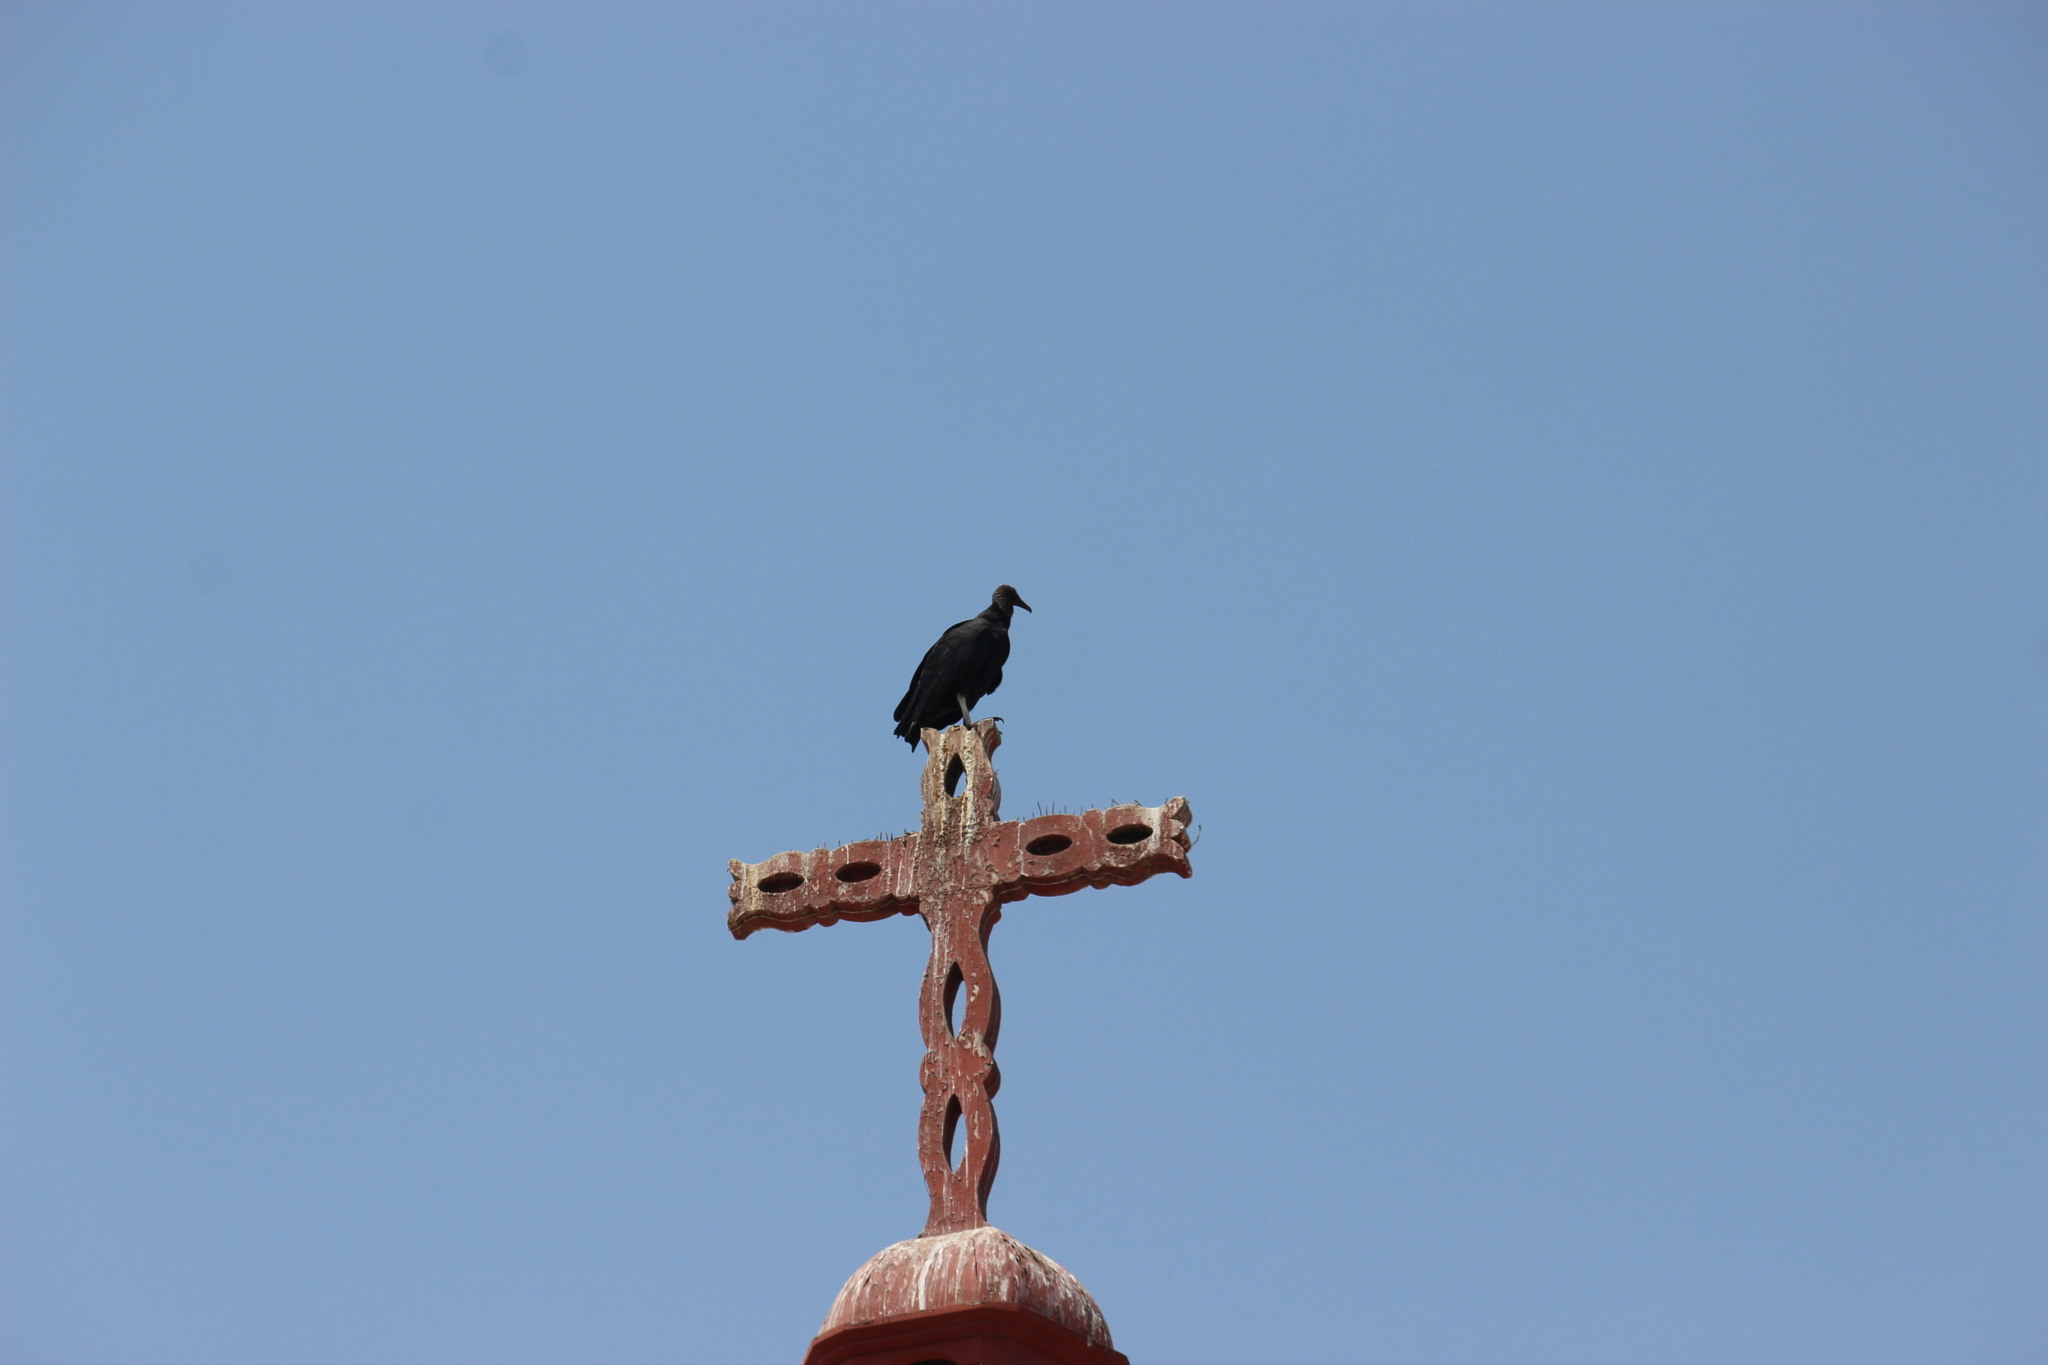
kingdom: Animalia
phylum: Chordata
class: Aves
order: Accipitriformes
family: Cathartidae
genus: Coragyps
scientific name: Coragyps atratus
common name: Black vulture
